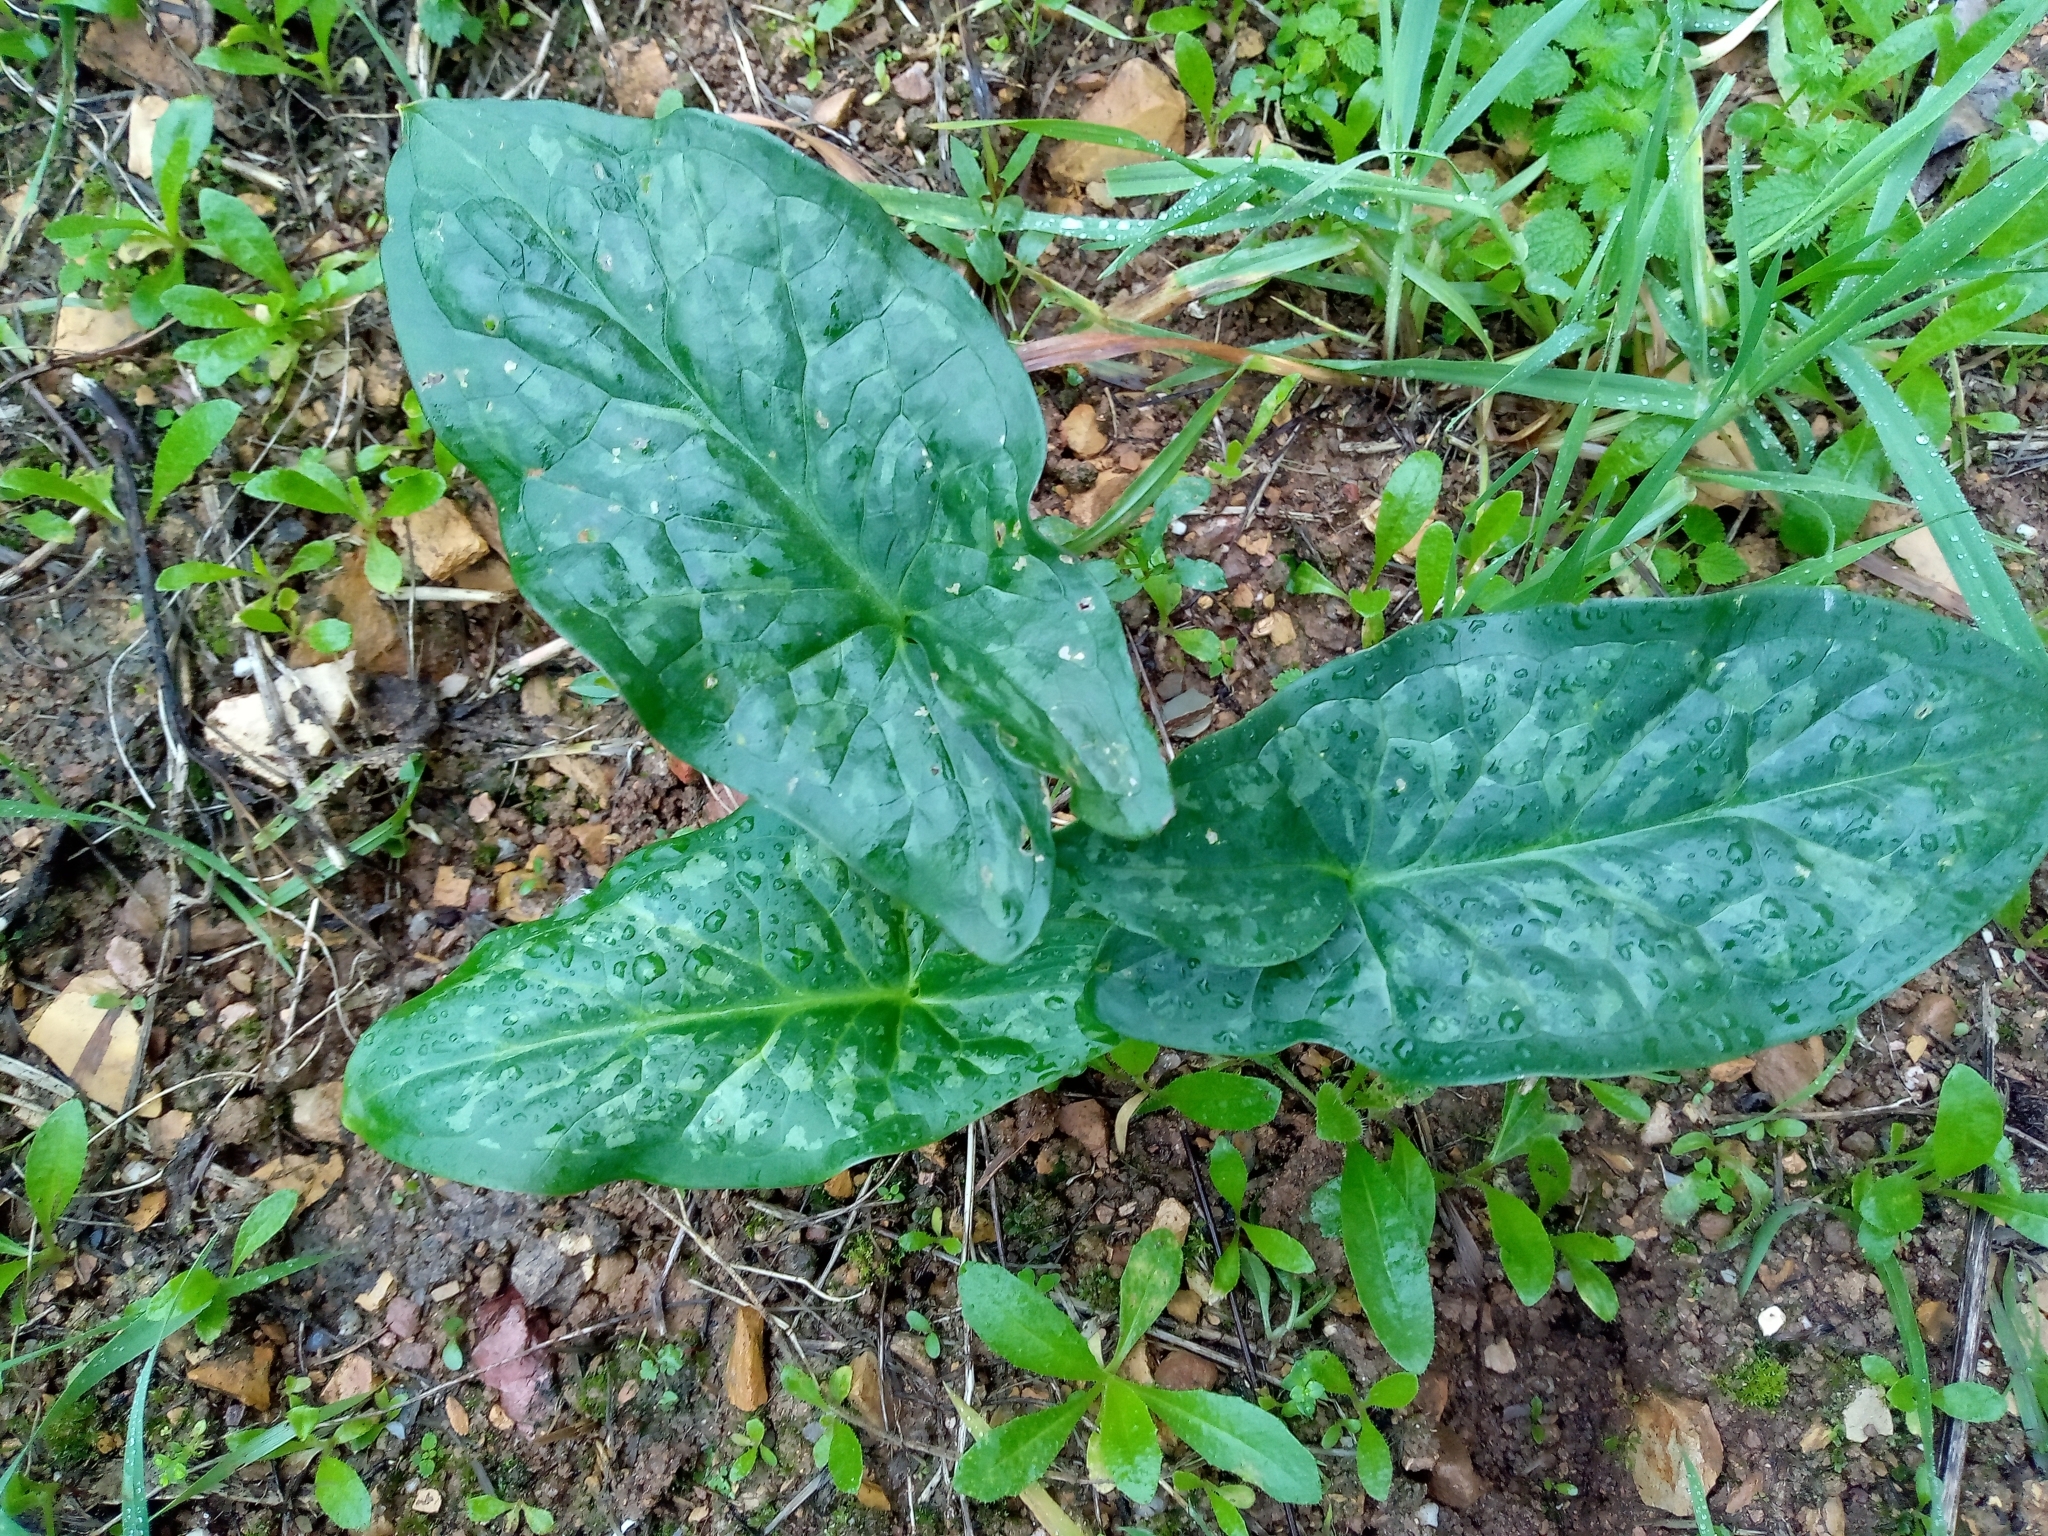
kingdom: Plantae
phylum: Tracheophyta
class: Liliopsida
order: Alismatales
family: Araceae
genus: Arum
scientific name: Arum italicum
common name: Italian lords-and-ladies
